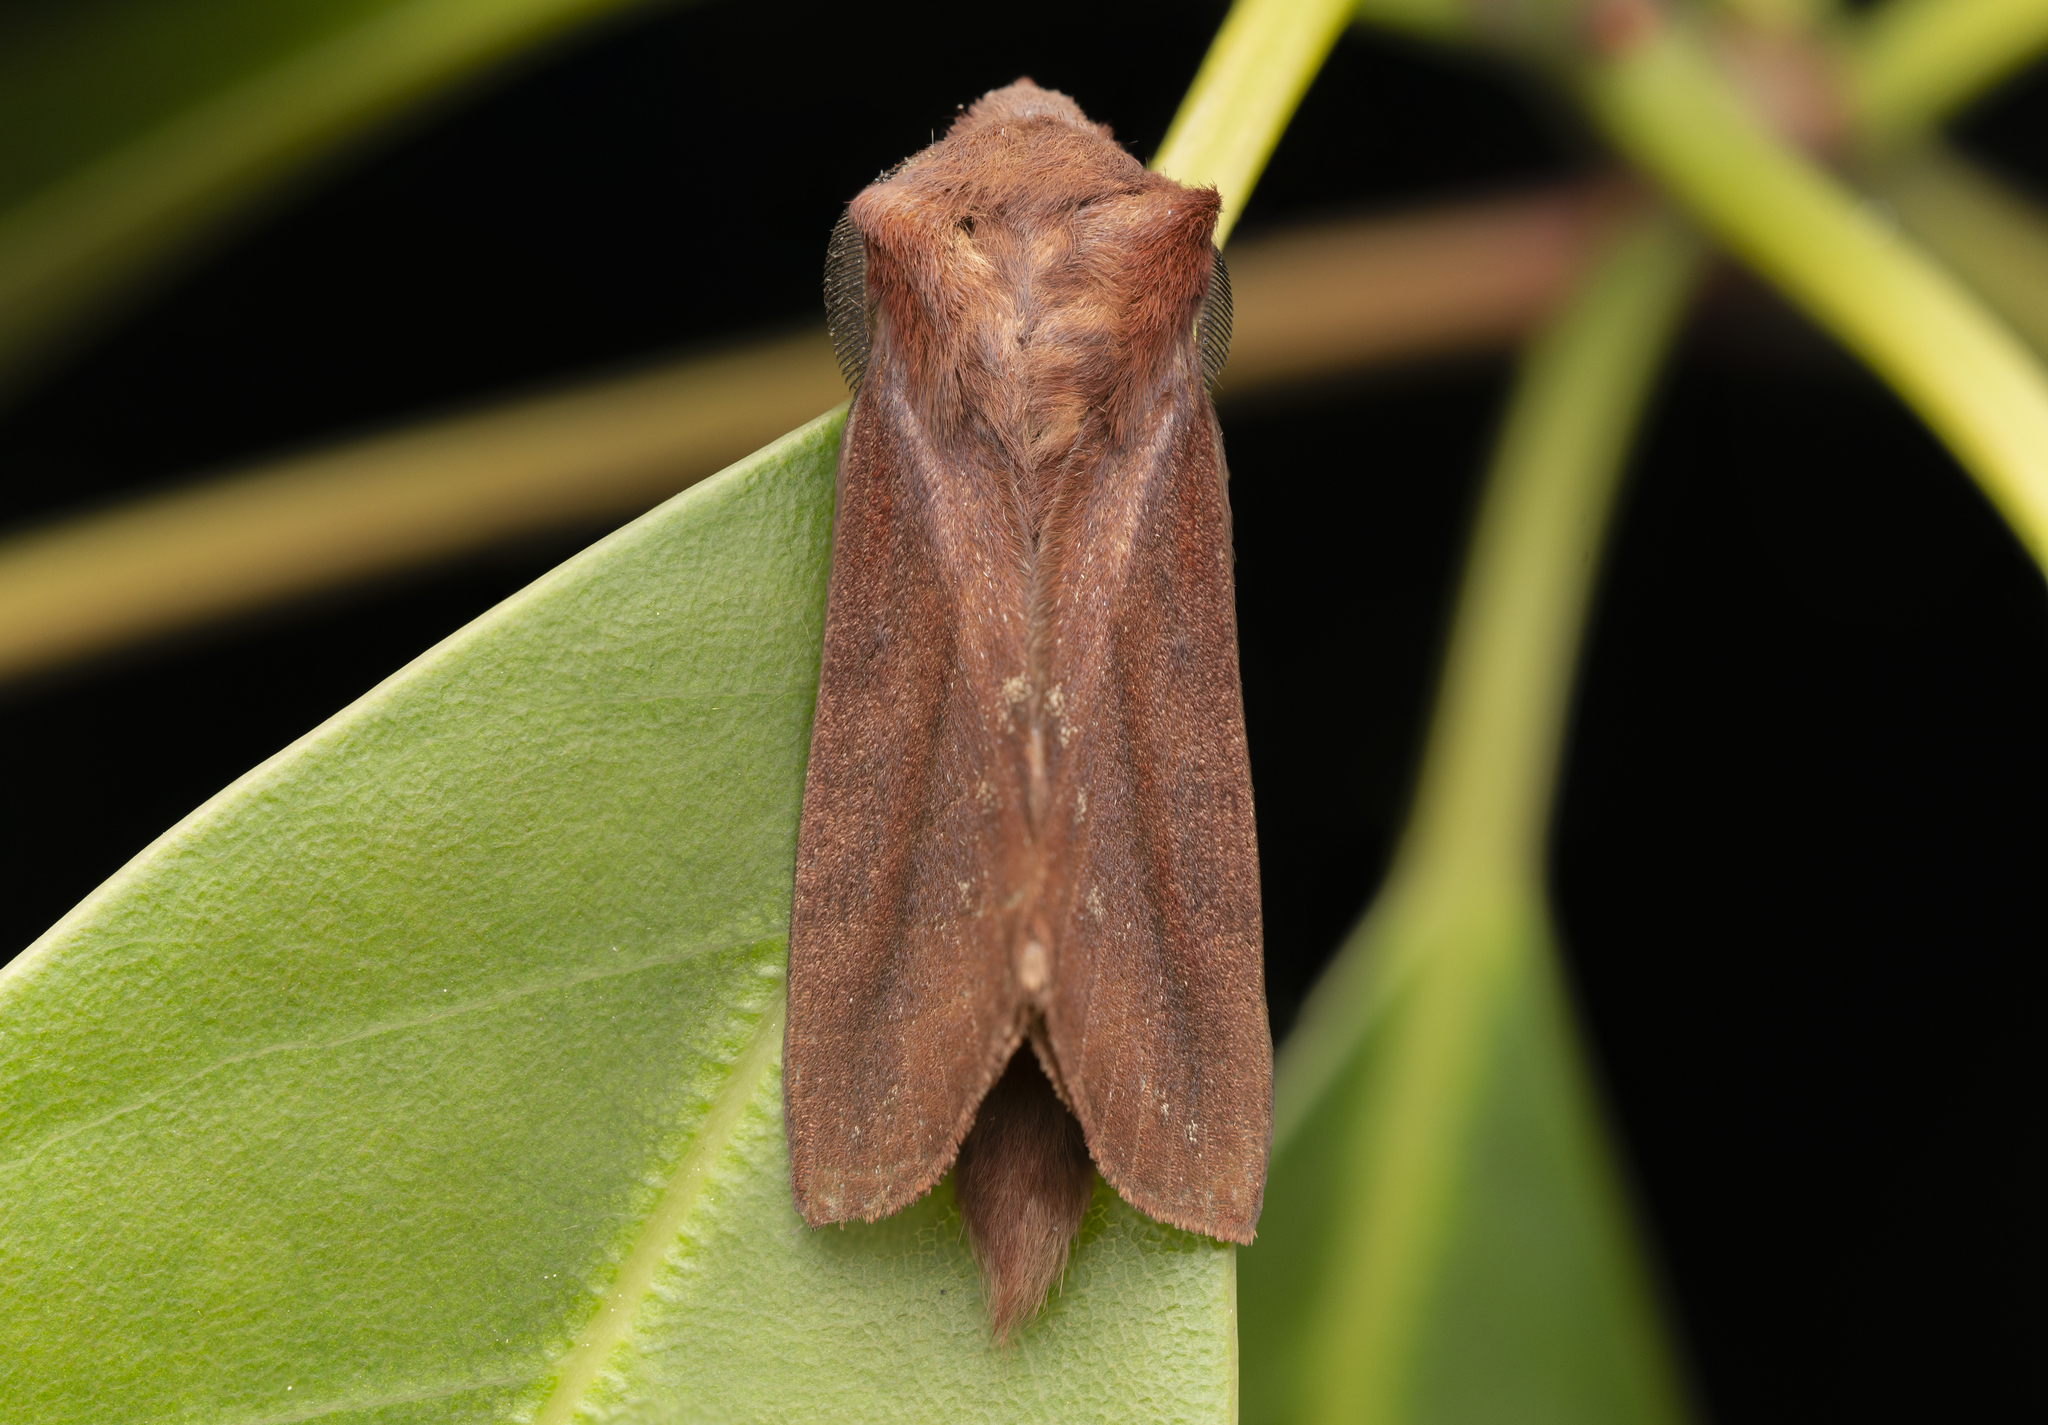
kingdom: Animalia
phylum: Arthropoda
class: Insecta
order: Lepidoptera
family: Lasiocampidae
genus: Kunugia
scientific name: Kunugia divaricata
